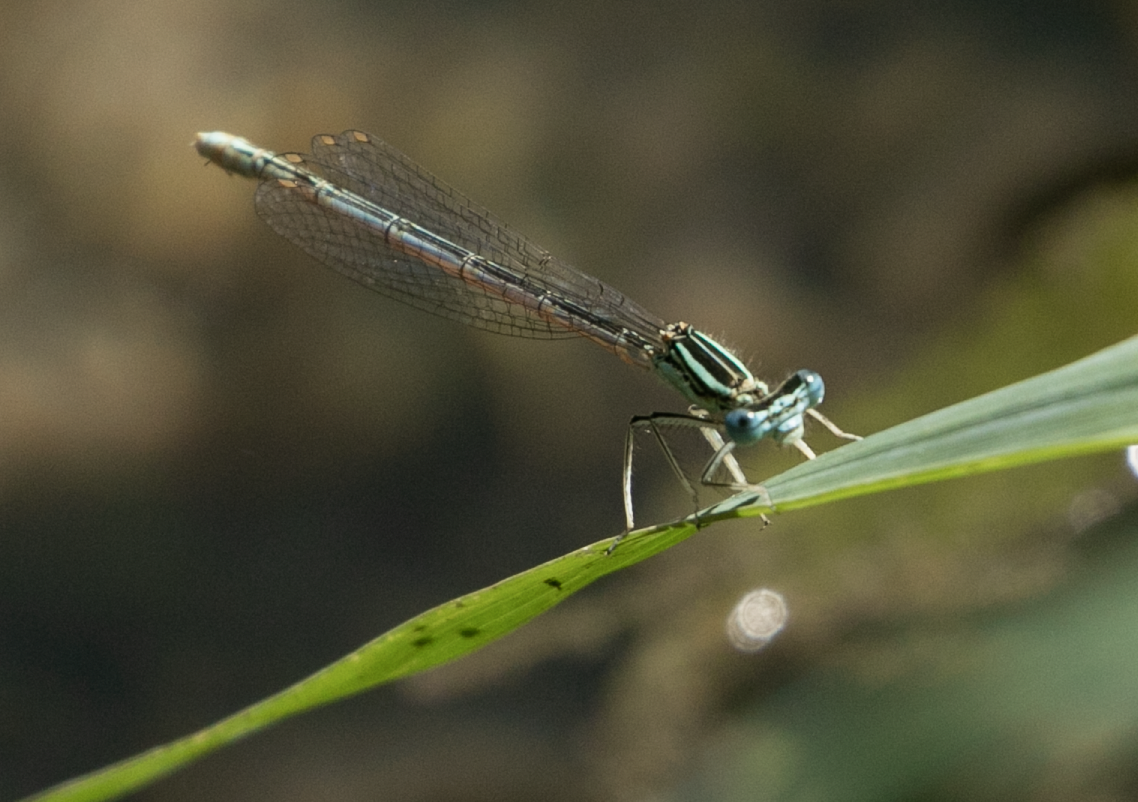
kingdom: Animalia
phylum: Arthropoda
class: Insecta
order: Odonata
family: Platycnemididae
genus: Platycnemis
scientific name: Platycnemis pennipes
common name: White-legged damselfly
